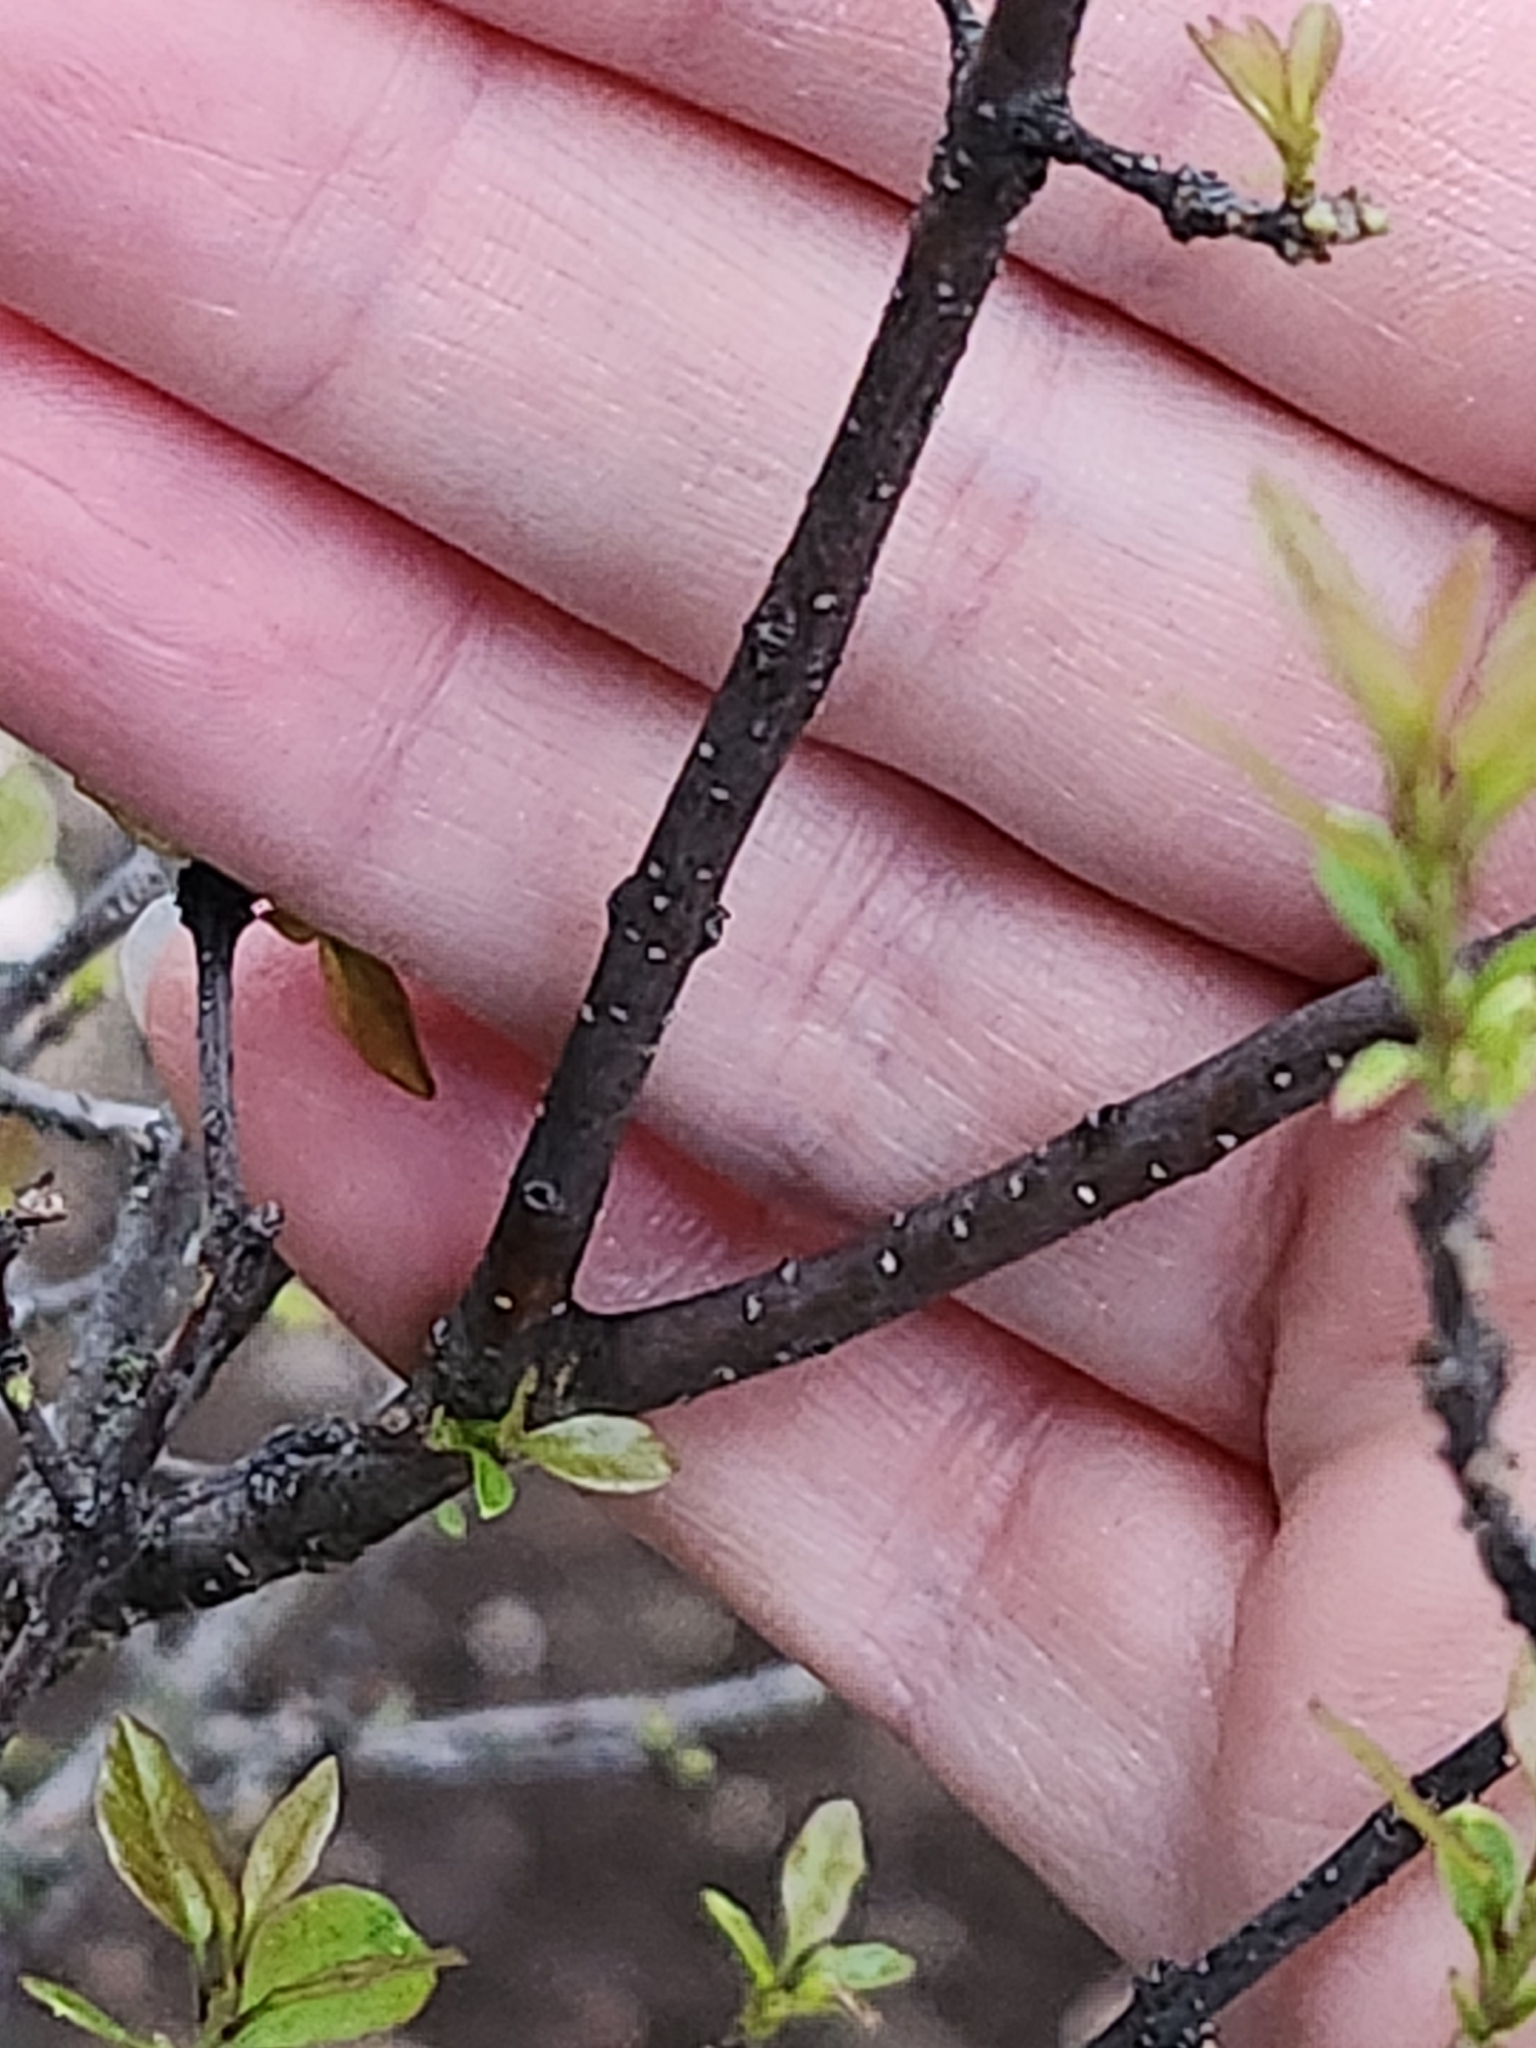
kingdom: Plantae
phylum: Tracheophyta
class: Magnoliopsida
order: Lamiales
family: Oleaceae
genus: Forestiera
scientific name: Forestiera reticulata
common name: Netleaf swamp-privet
